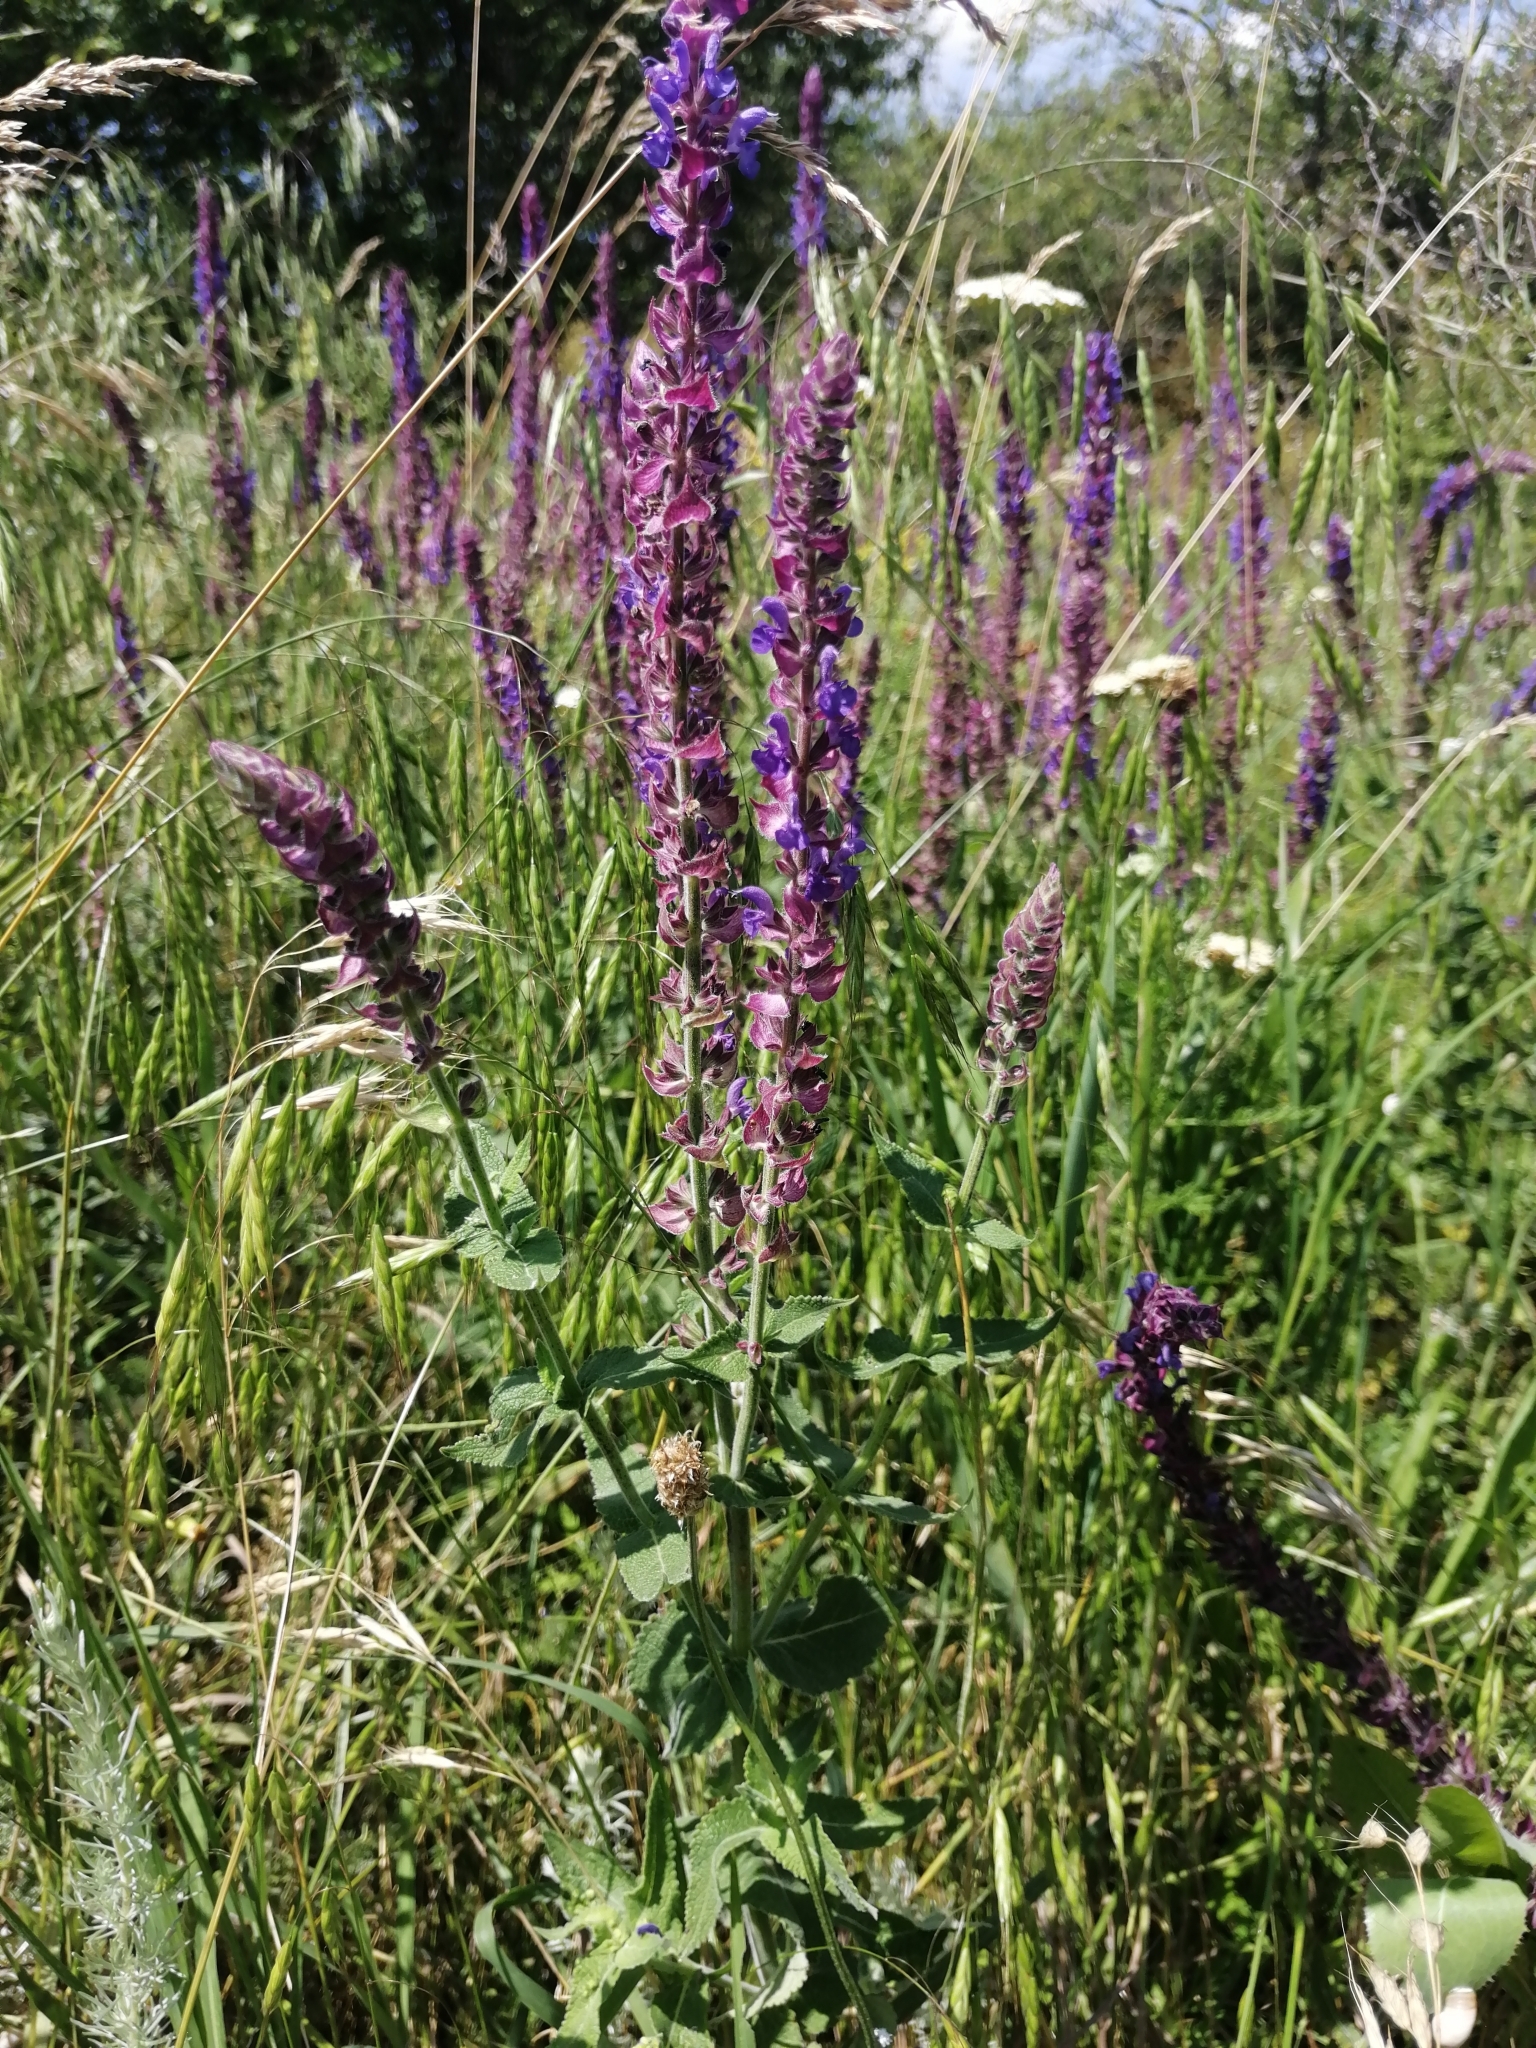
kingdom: Plantae
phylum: Tracheophyta
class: Magnoliopsida
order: Lamiales
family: Lamiaceae
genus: Salvia
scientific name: Salvia nemorosa
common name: Balkan clary
